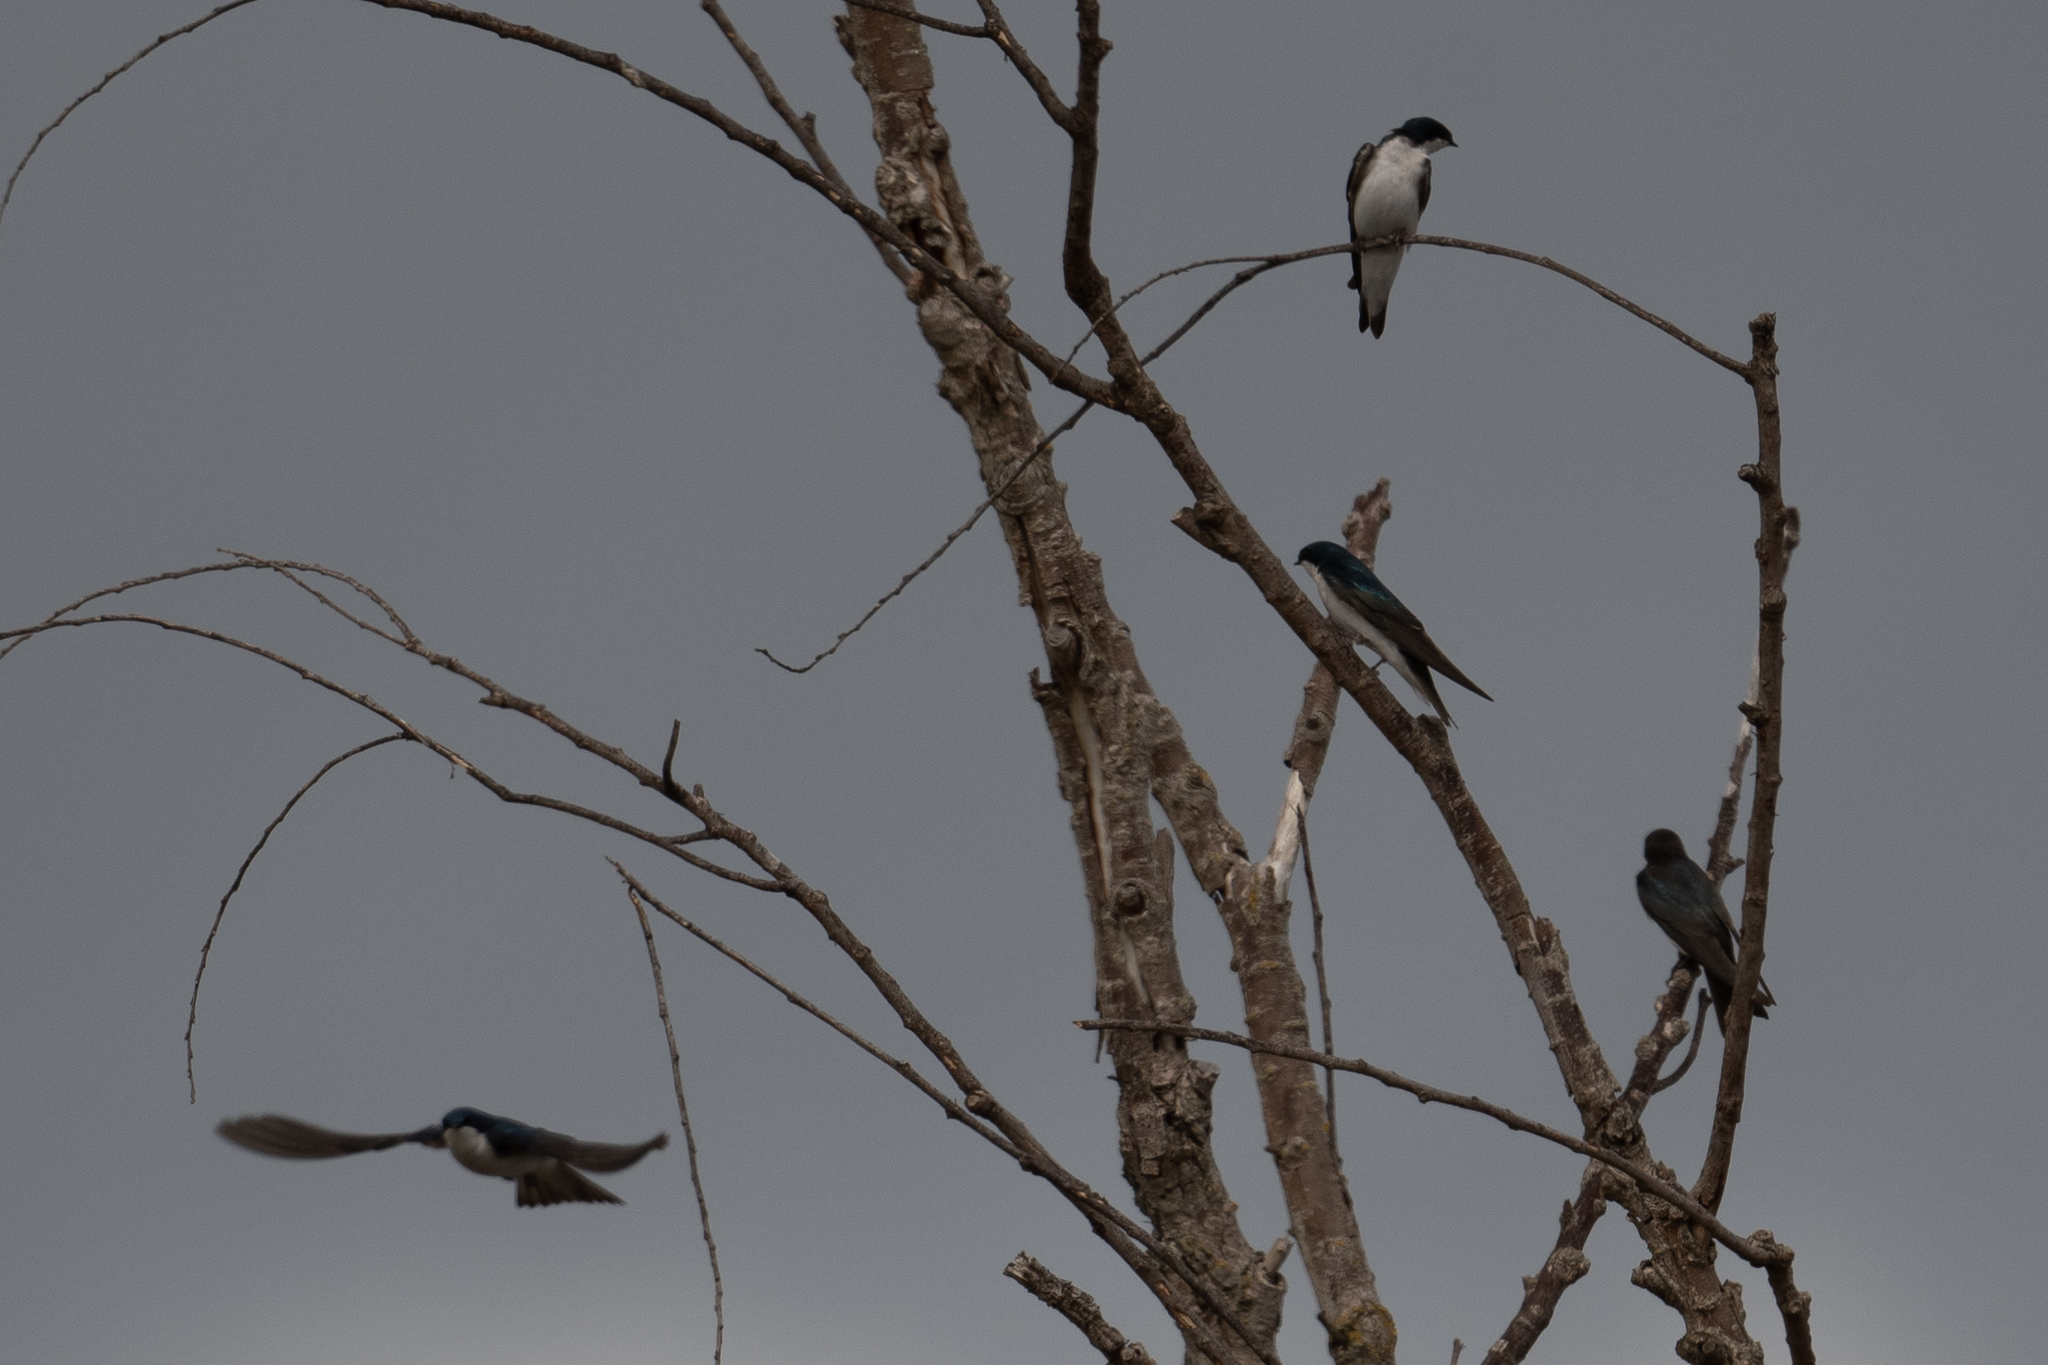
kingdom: Animalia
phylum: Chordata
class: Aves
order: Passeriformes
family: Hirundinidae
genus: Tachycineta
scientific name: Tachycineta bicolor
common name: Tree swallow
